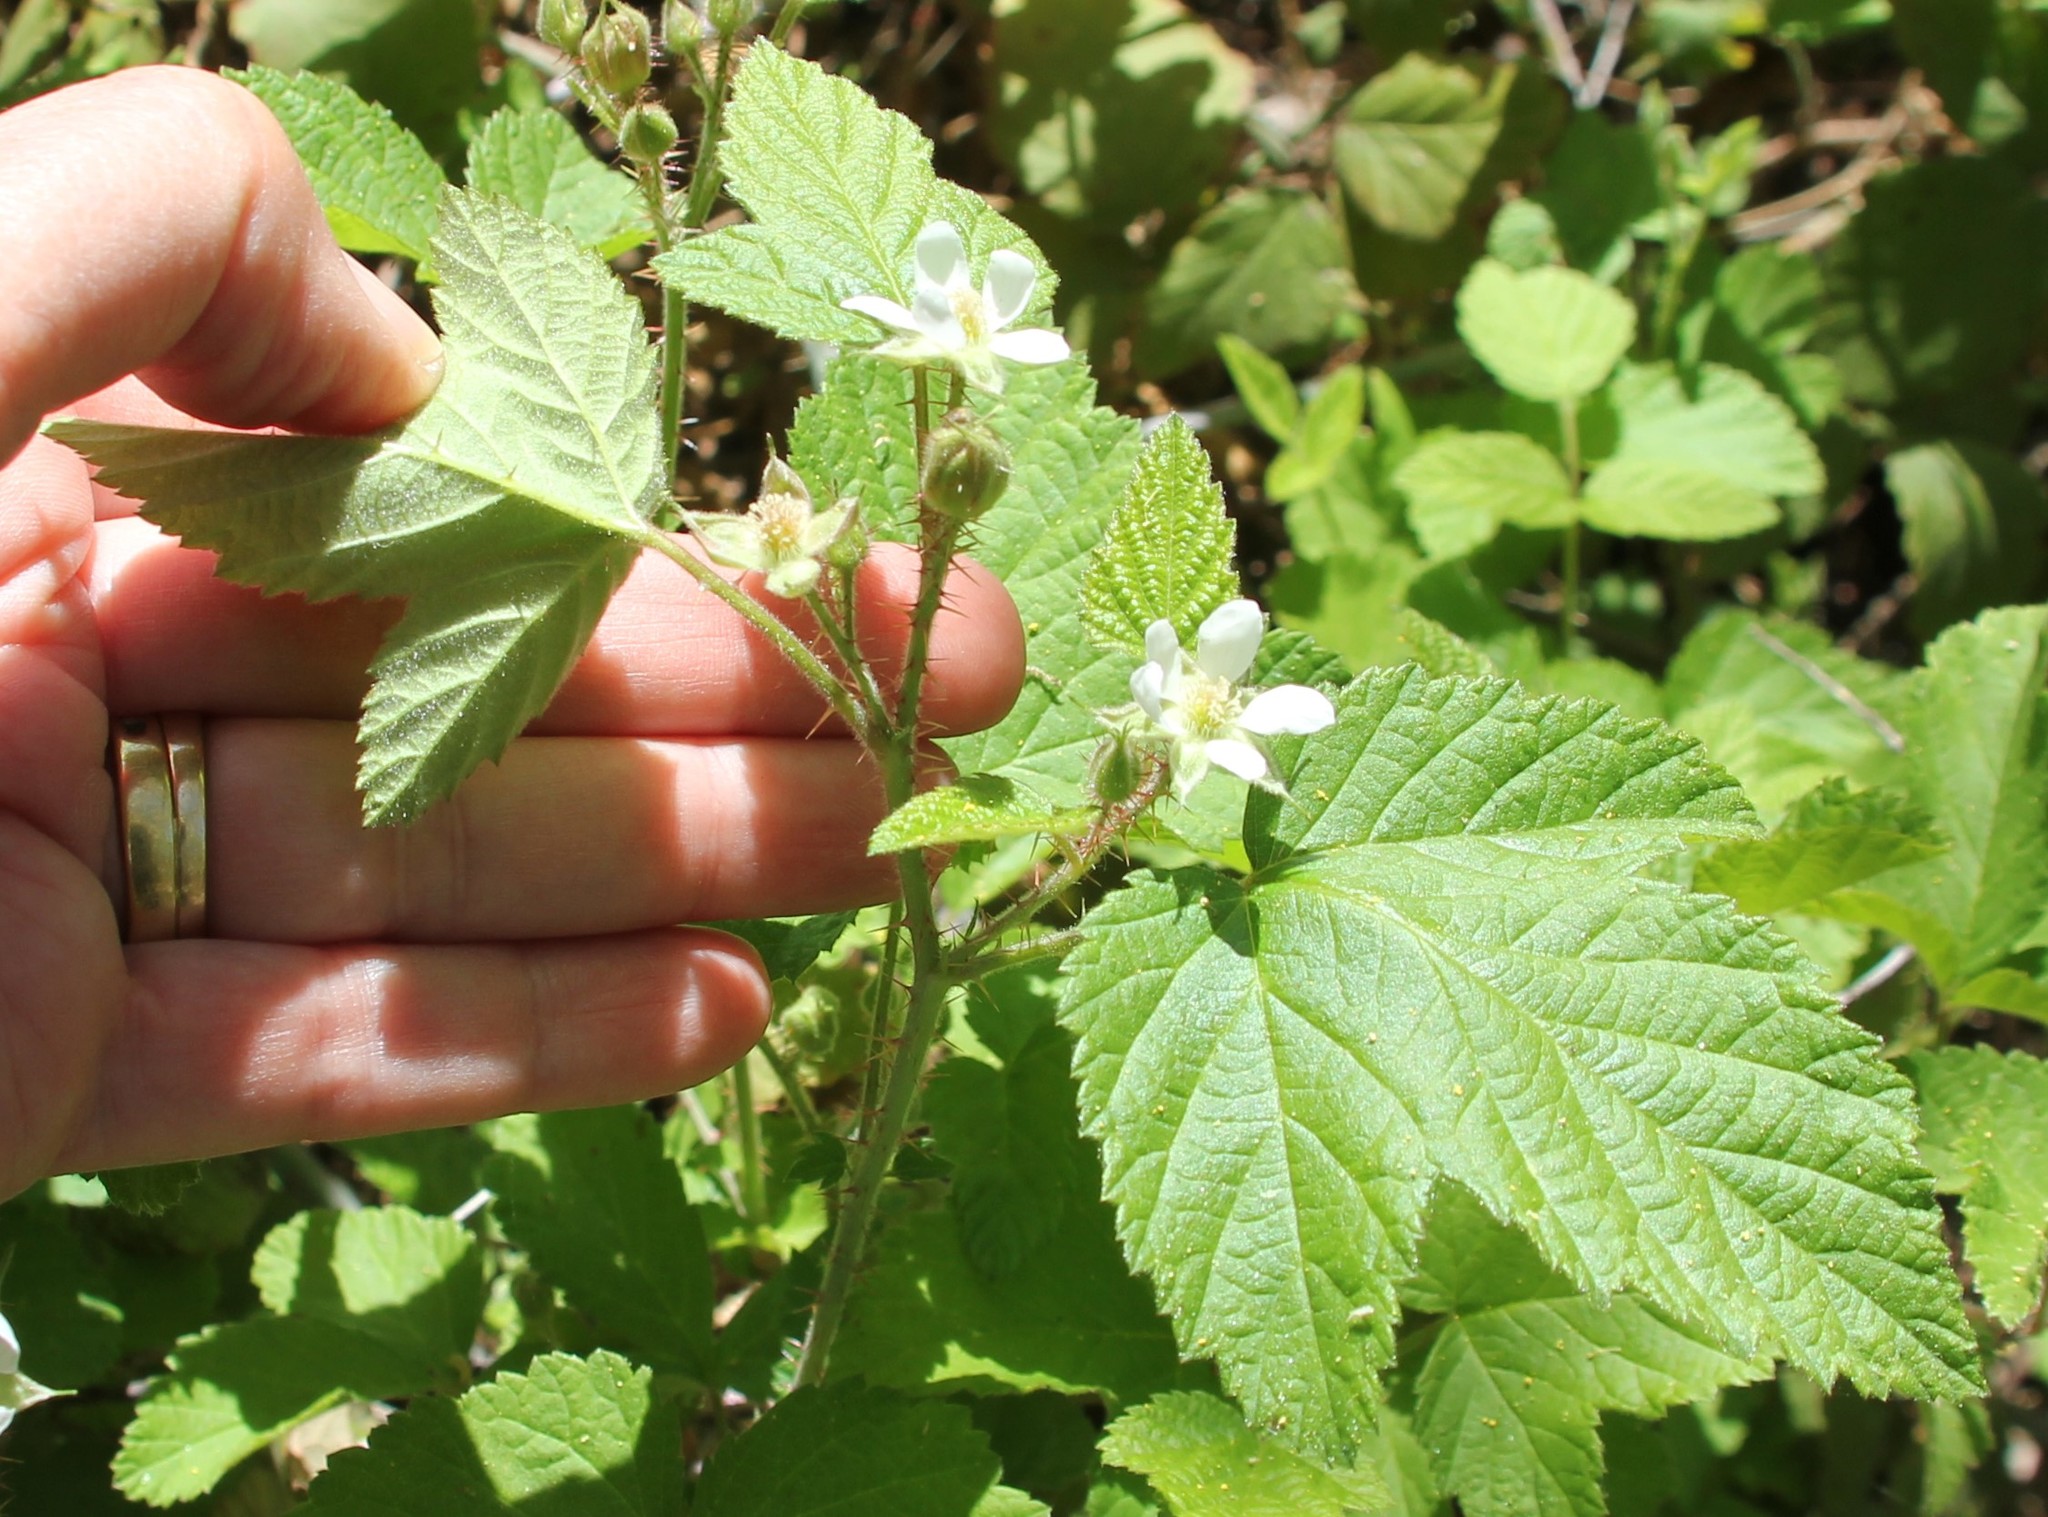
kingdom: Plantae
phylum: Tracheophyta
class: Magnoliopsida
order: Rosales
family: Rosaceae
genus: Rubus
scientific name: Rubus ursinus
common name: Pacific blackberry
